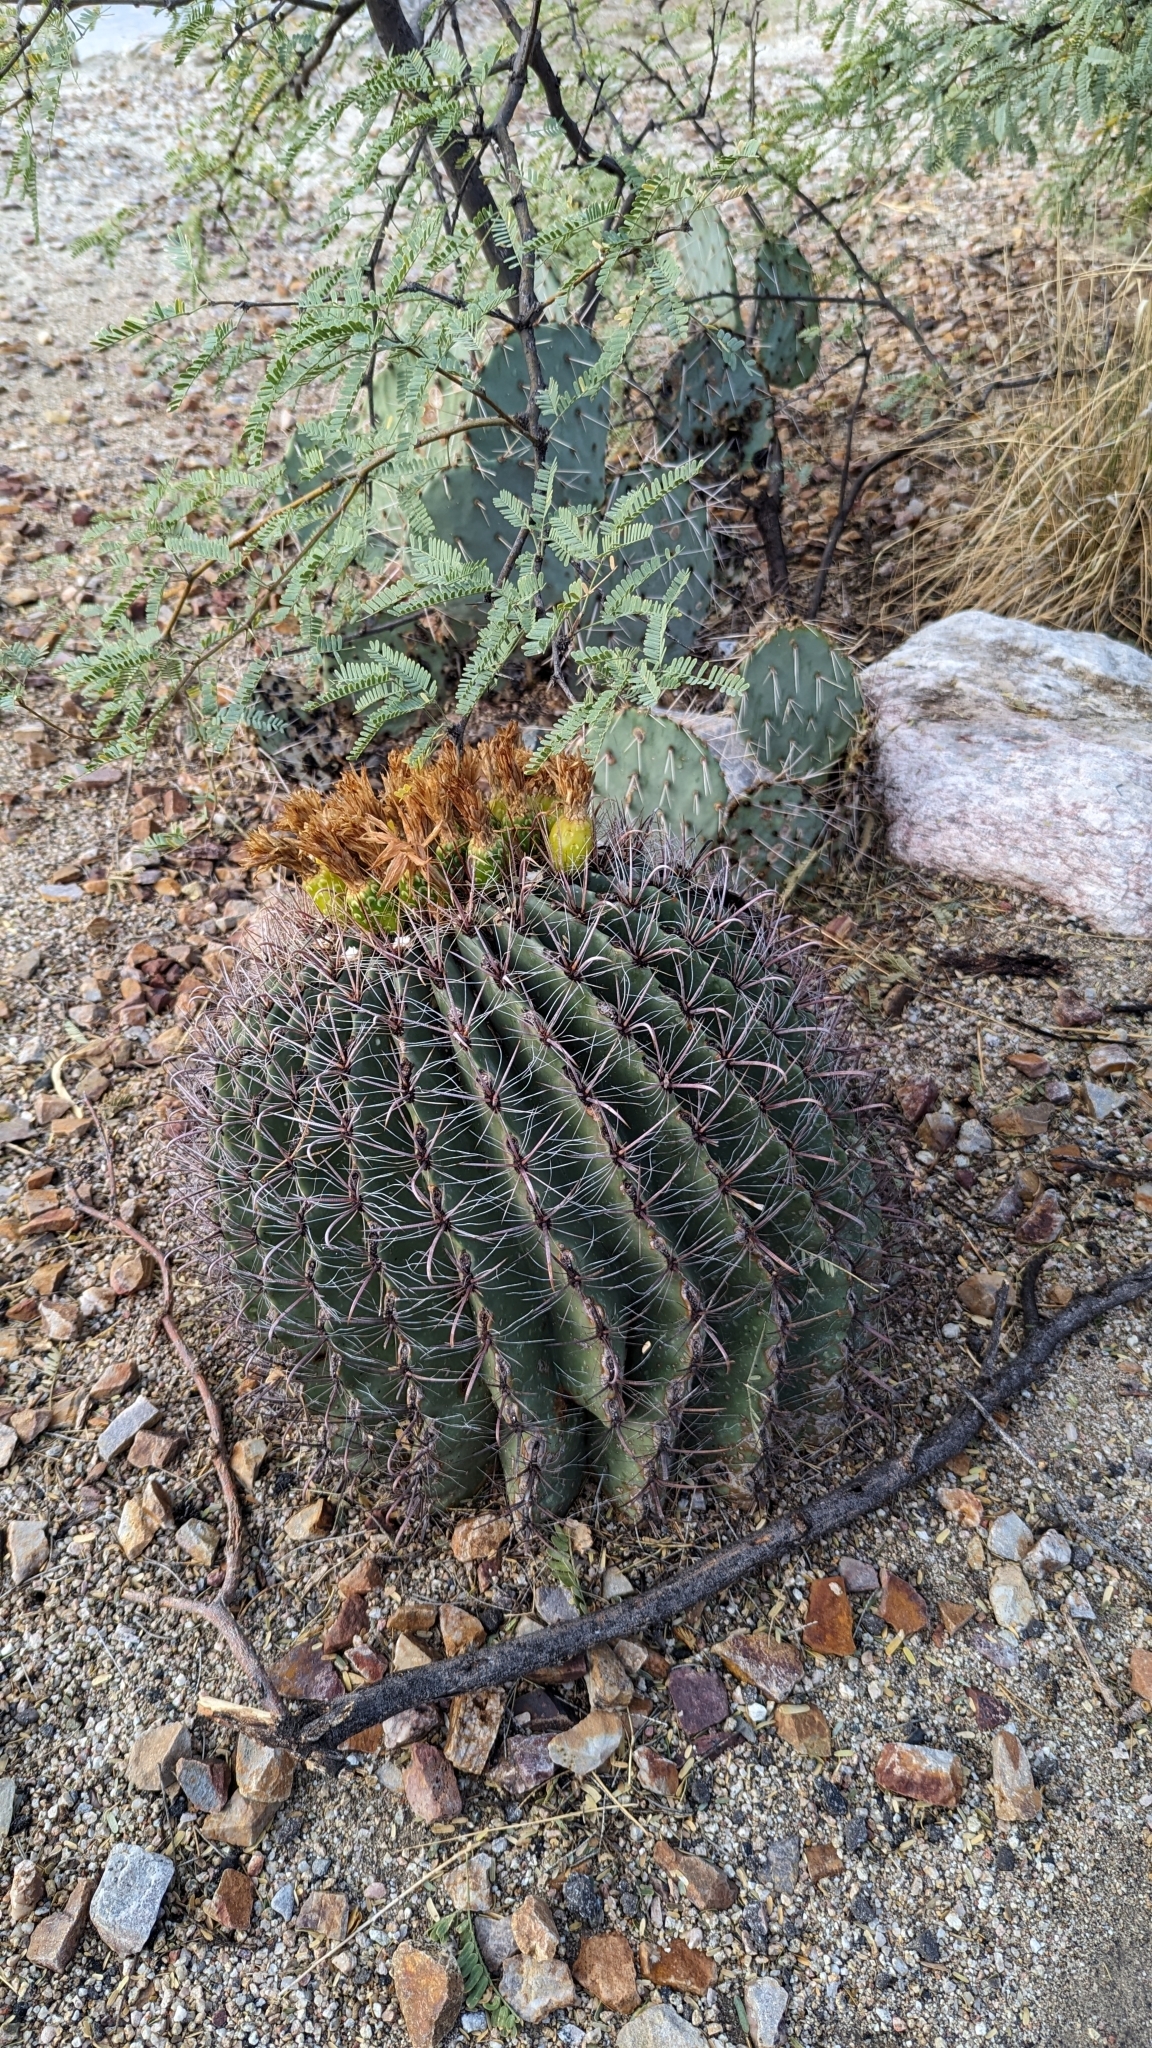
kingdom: Plantae
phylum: Tracheophyta
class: Magnoliopsida
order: Caryophyllales
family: Cactaceae
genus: Ferocactus
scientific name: Ferocactus wislizeni
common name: Candy barrel cactus
